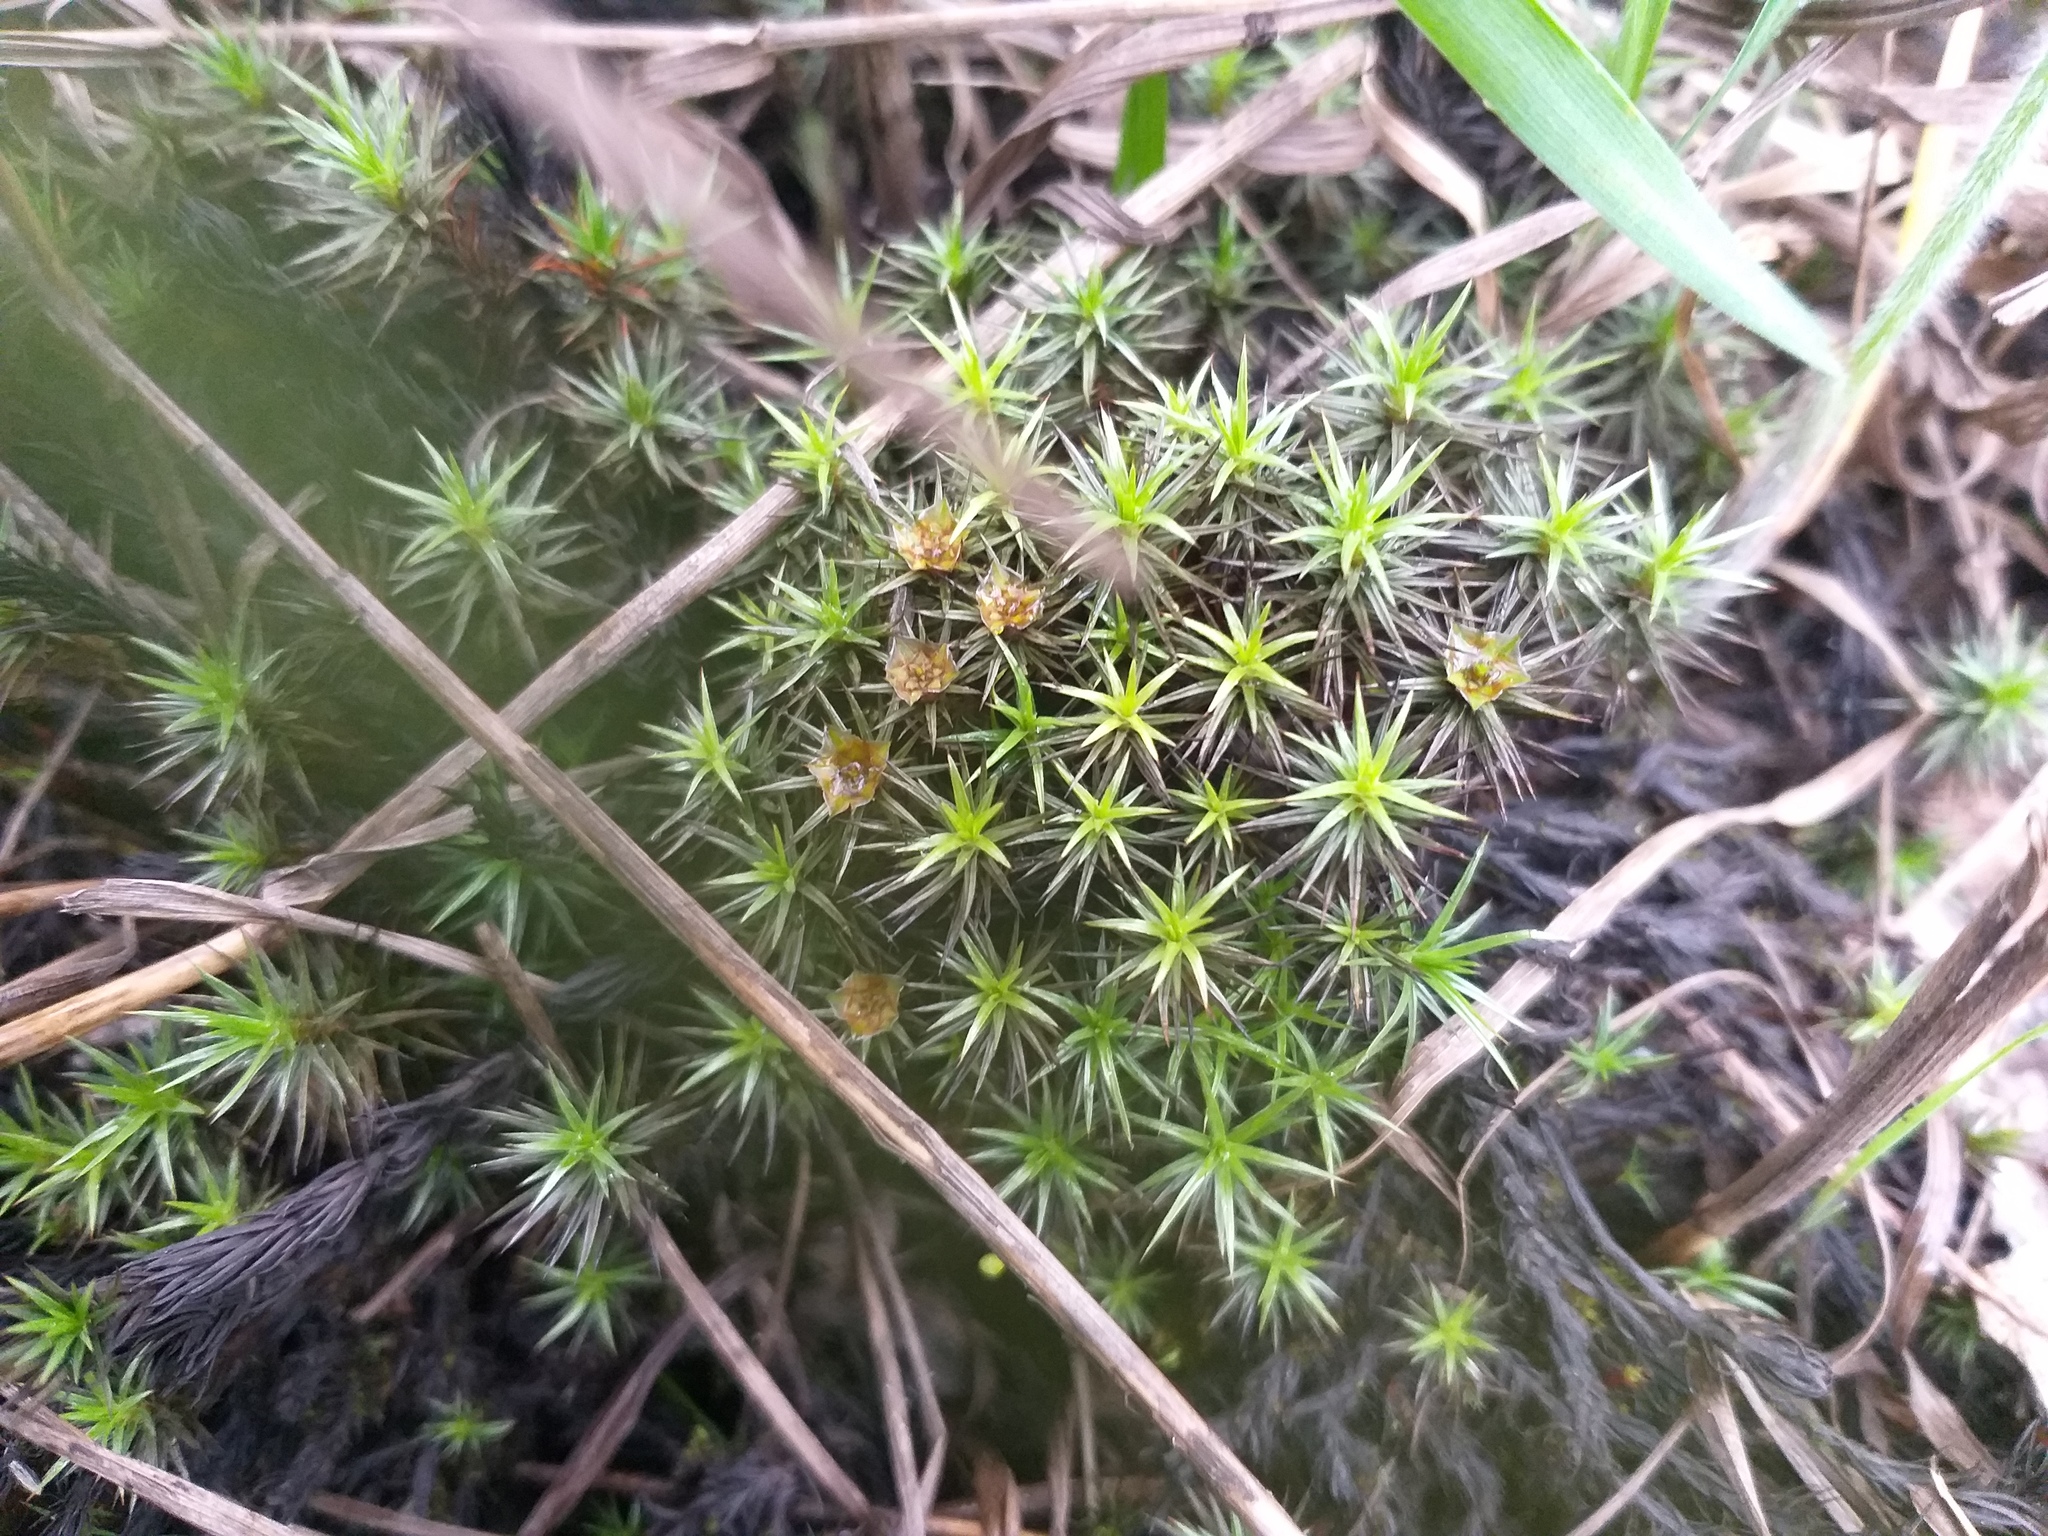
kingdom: Plantae
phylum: Bryophyta
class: Polytrichopsida
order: Polytrichales
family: Polytrichaceae
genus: Polytrichum
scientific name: Polytrichum juniperinum
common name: Juniper haircap moss
